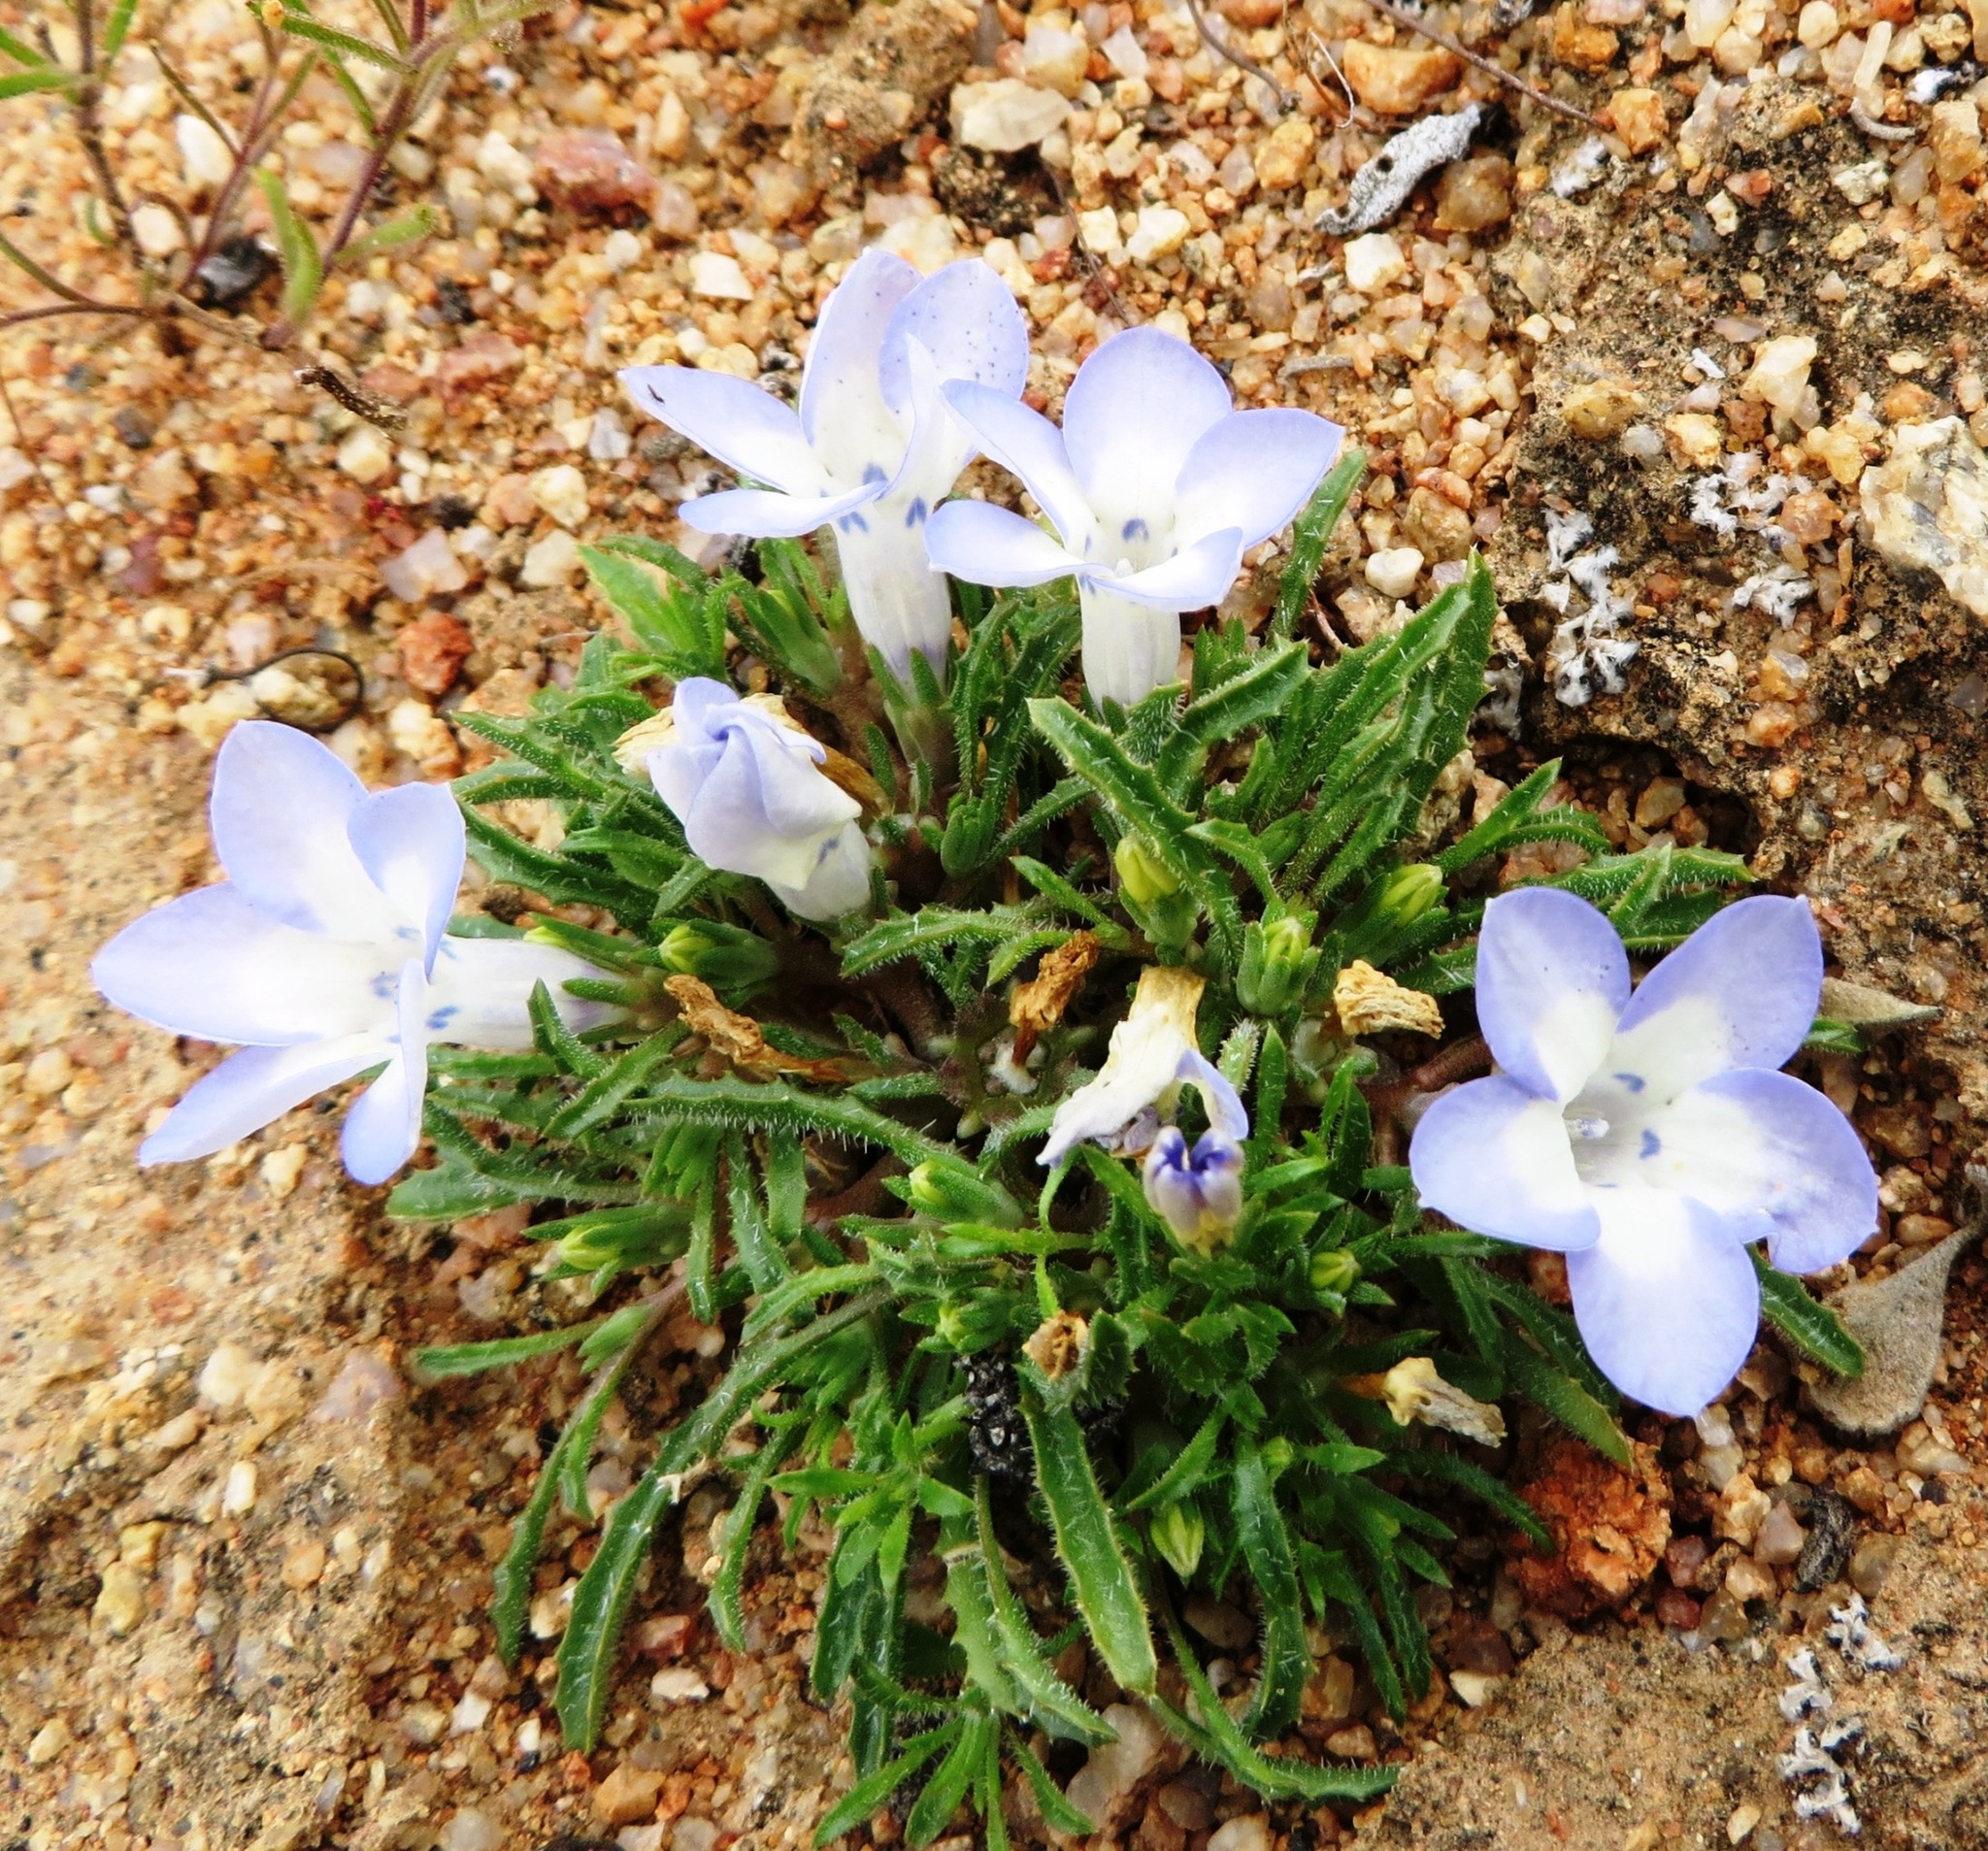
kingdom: Plantae
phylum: Tracheophyta
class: Magnoliopsida
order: Asterales
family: Campanulaceae
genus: Wahlenbergia
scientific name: Wahlenbergia acaulis
